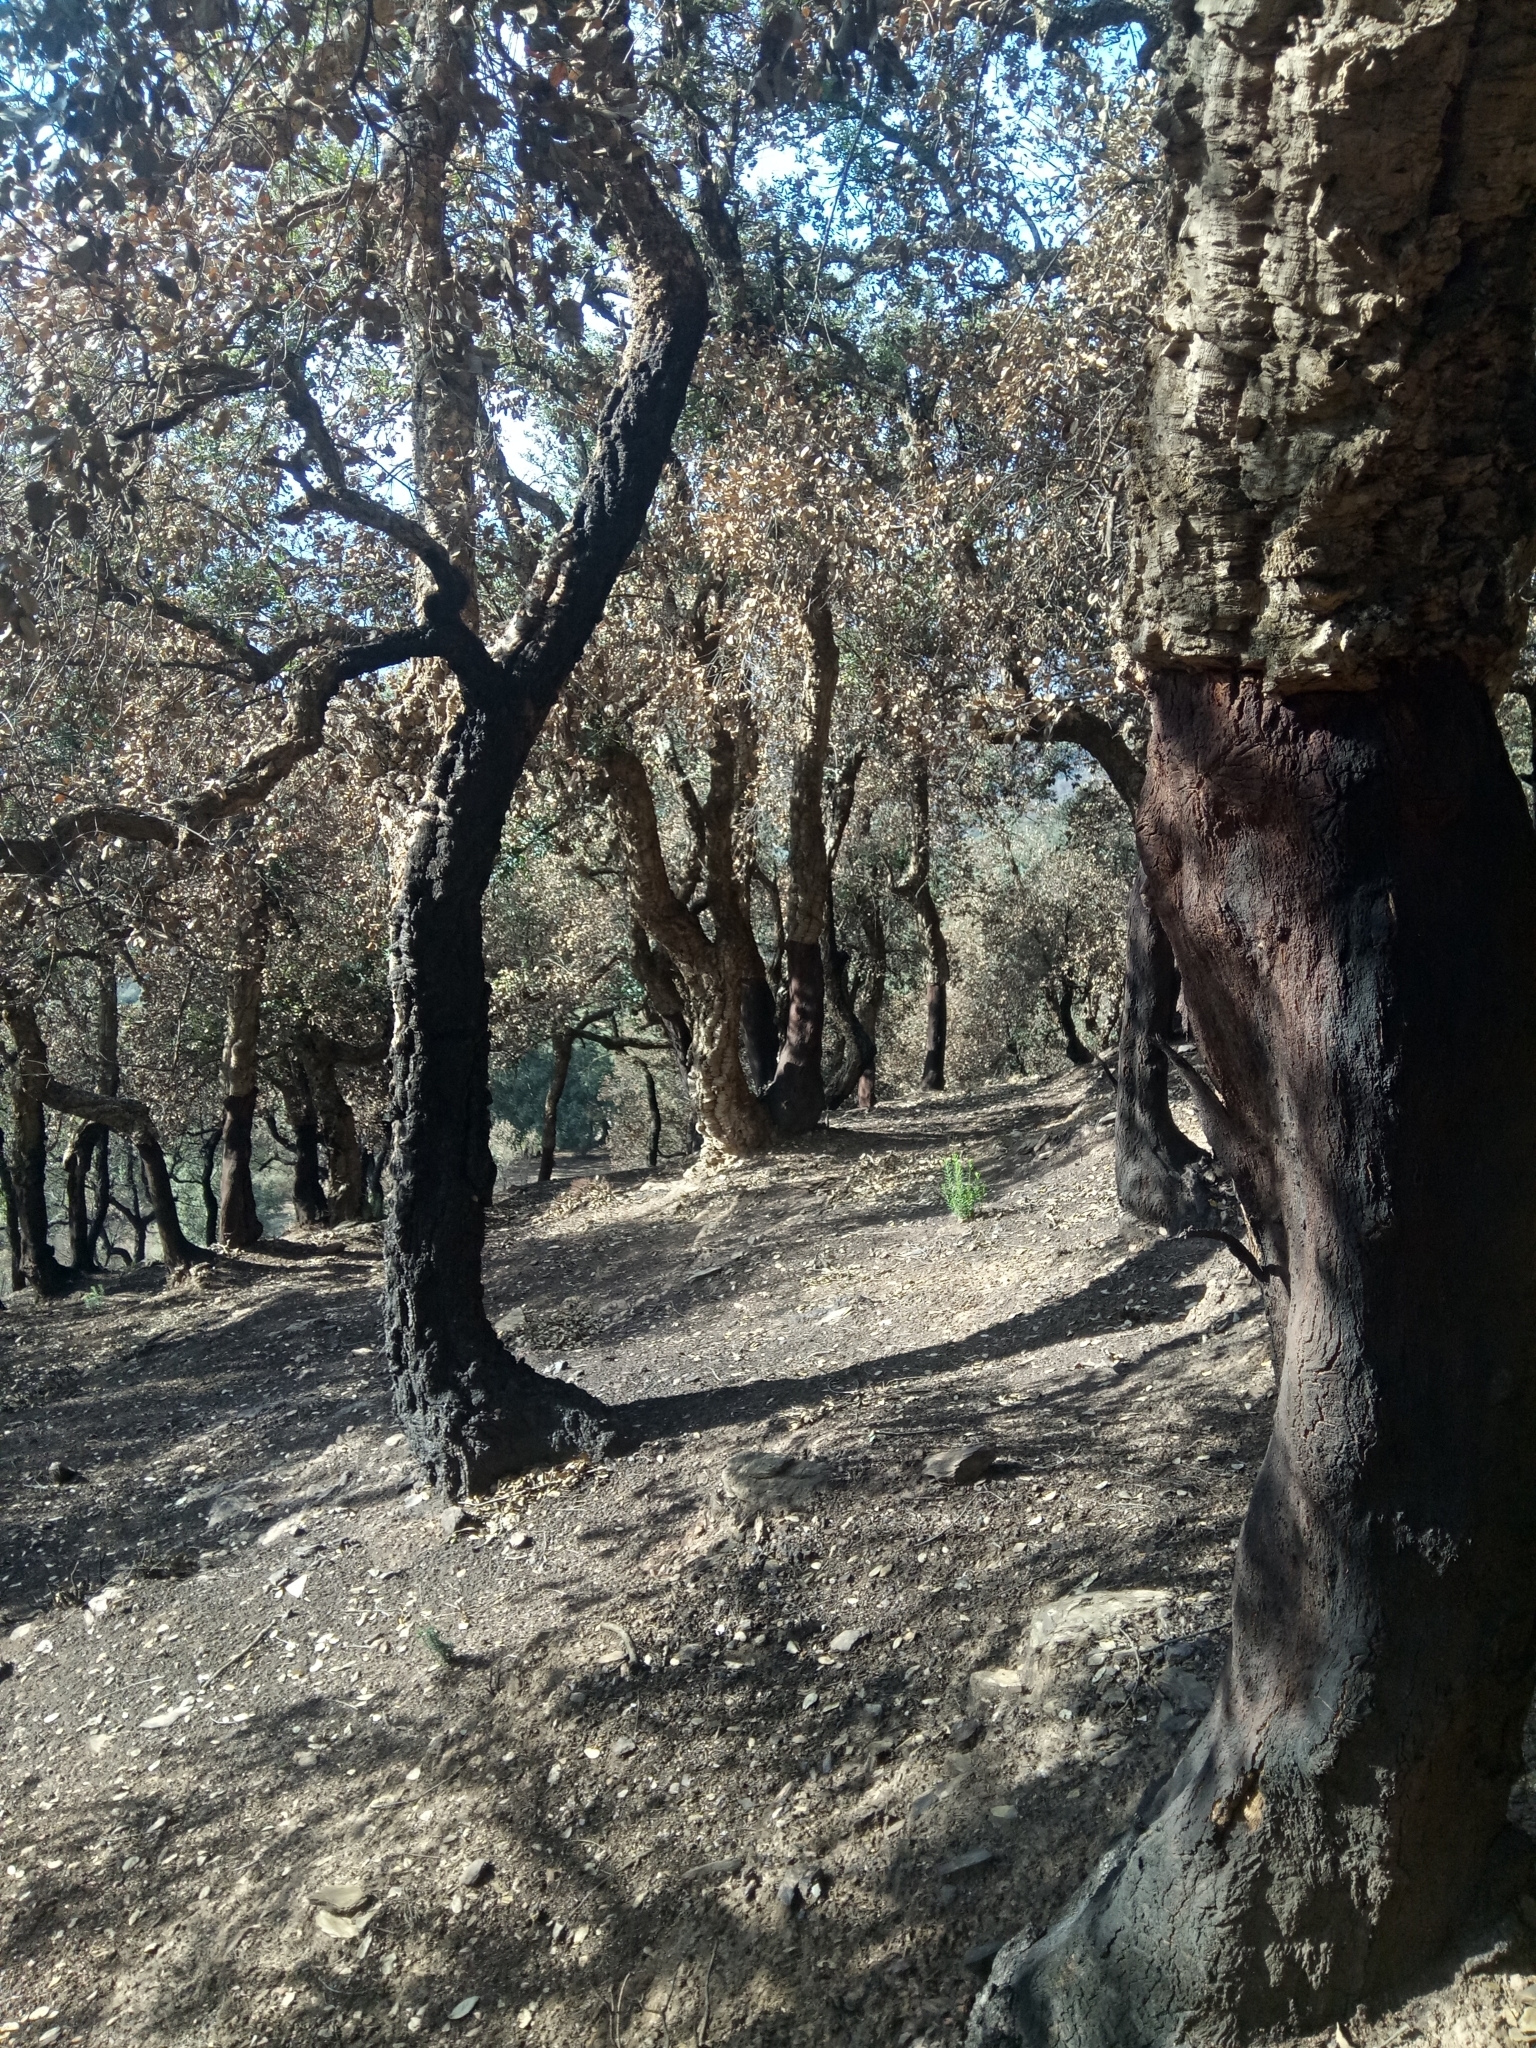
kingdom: Plantae
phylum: Tracheophyta
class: Magnoliopsida
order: Fagales
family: Fagaceae
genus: Quercus
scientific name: Quercus suber
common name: Cork oak
